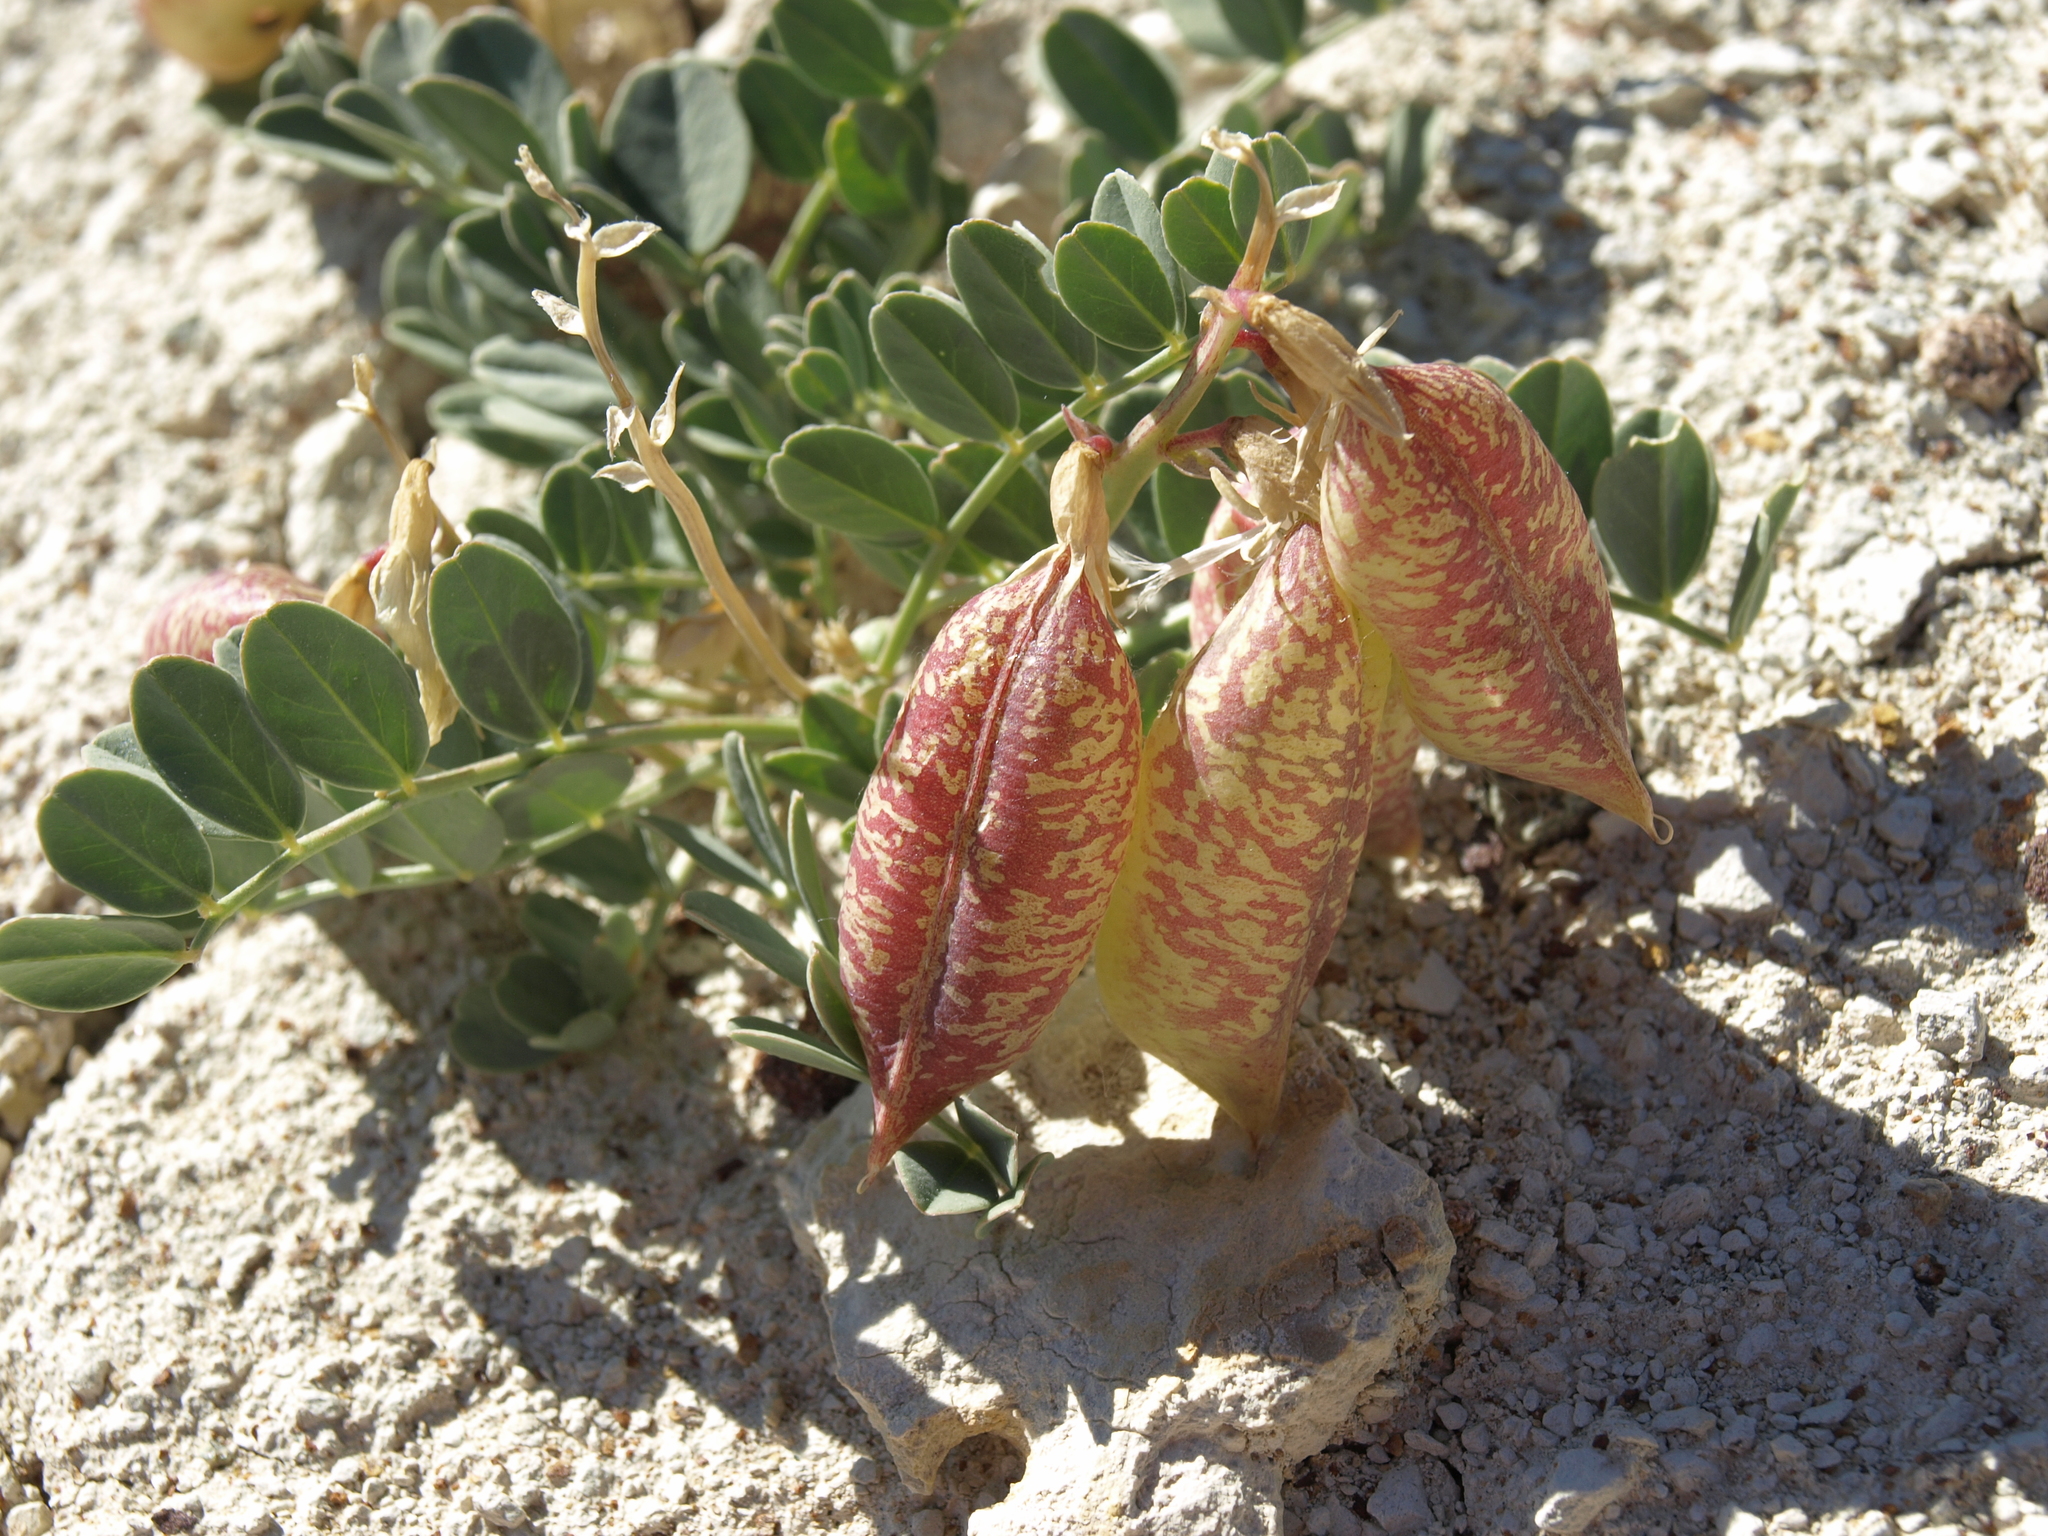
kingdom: Plantae
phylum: Tracheophyta
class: Magnoliopsida
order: Fabales
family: Fabaceae
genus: Astragalus
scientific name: Astragalus oophorus
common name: Egg milkvetch
